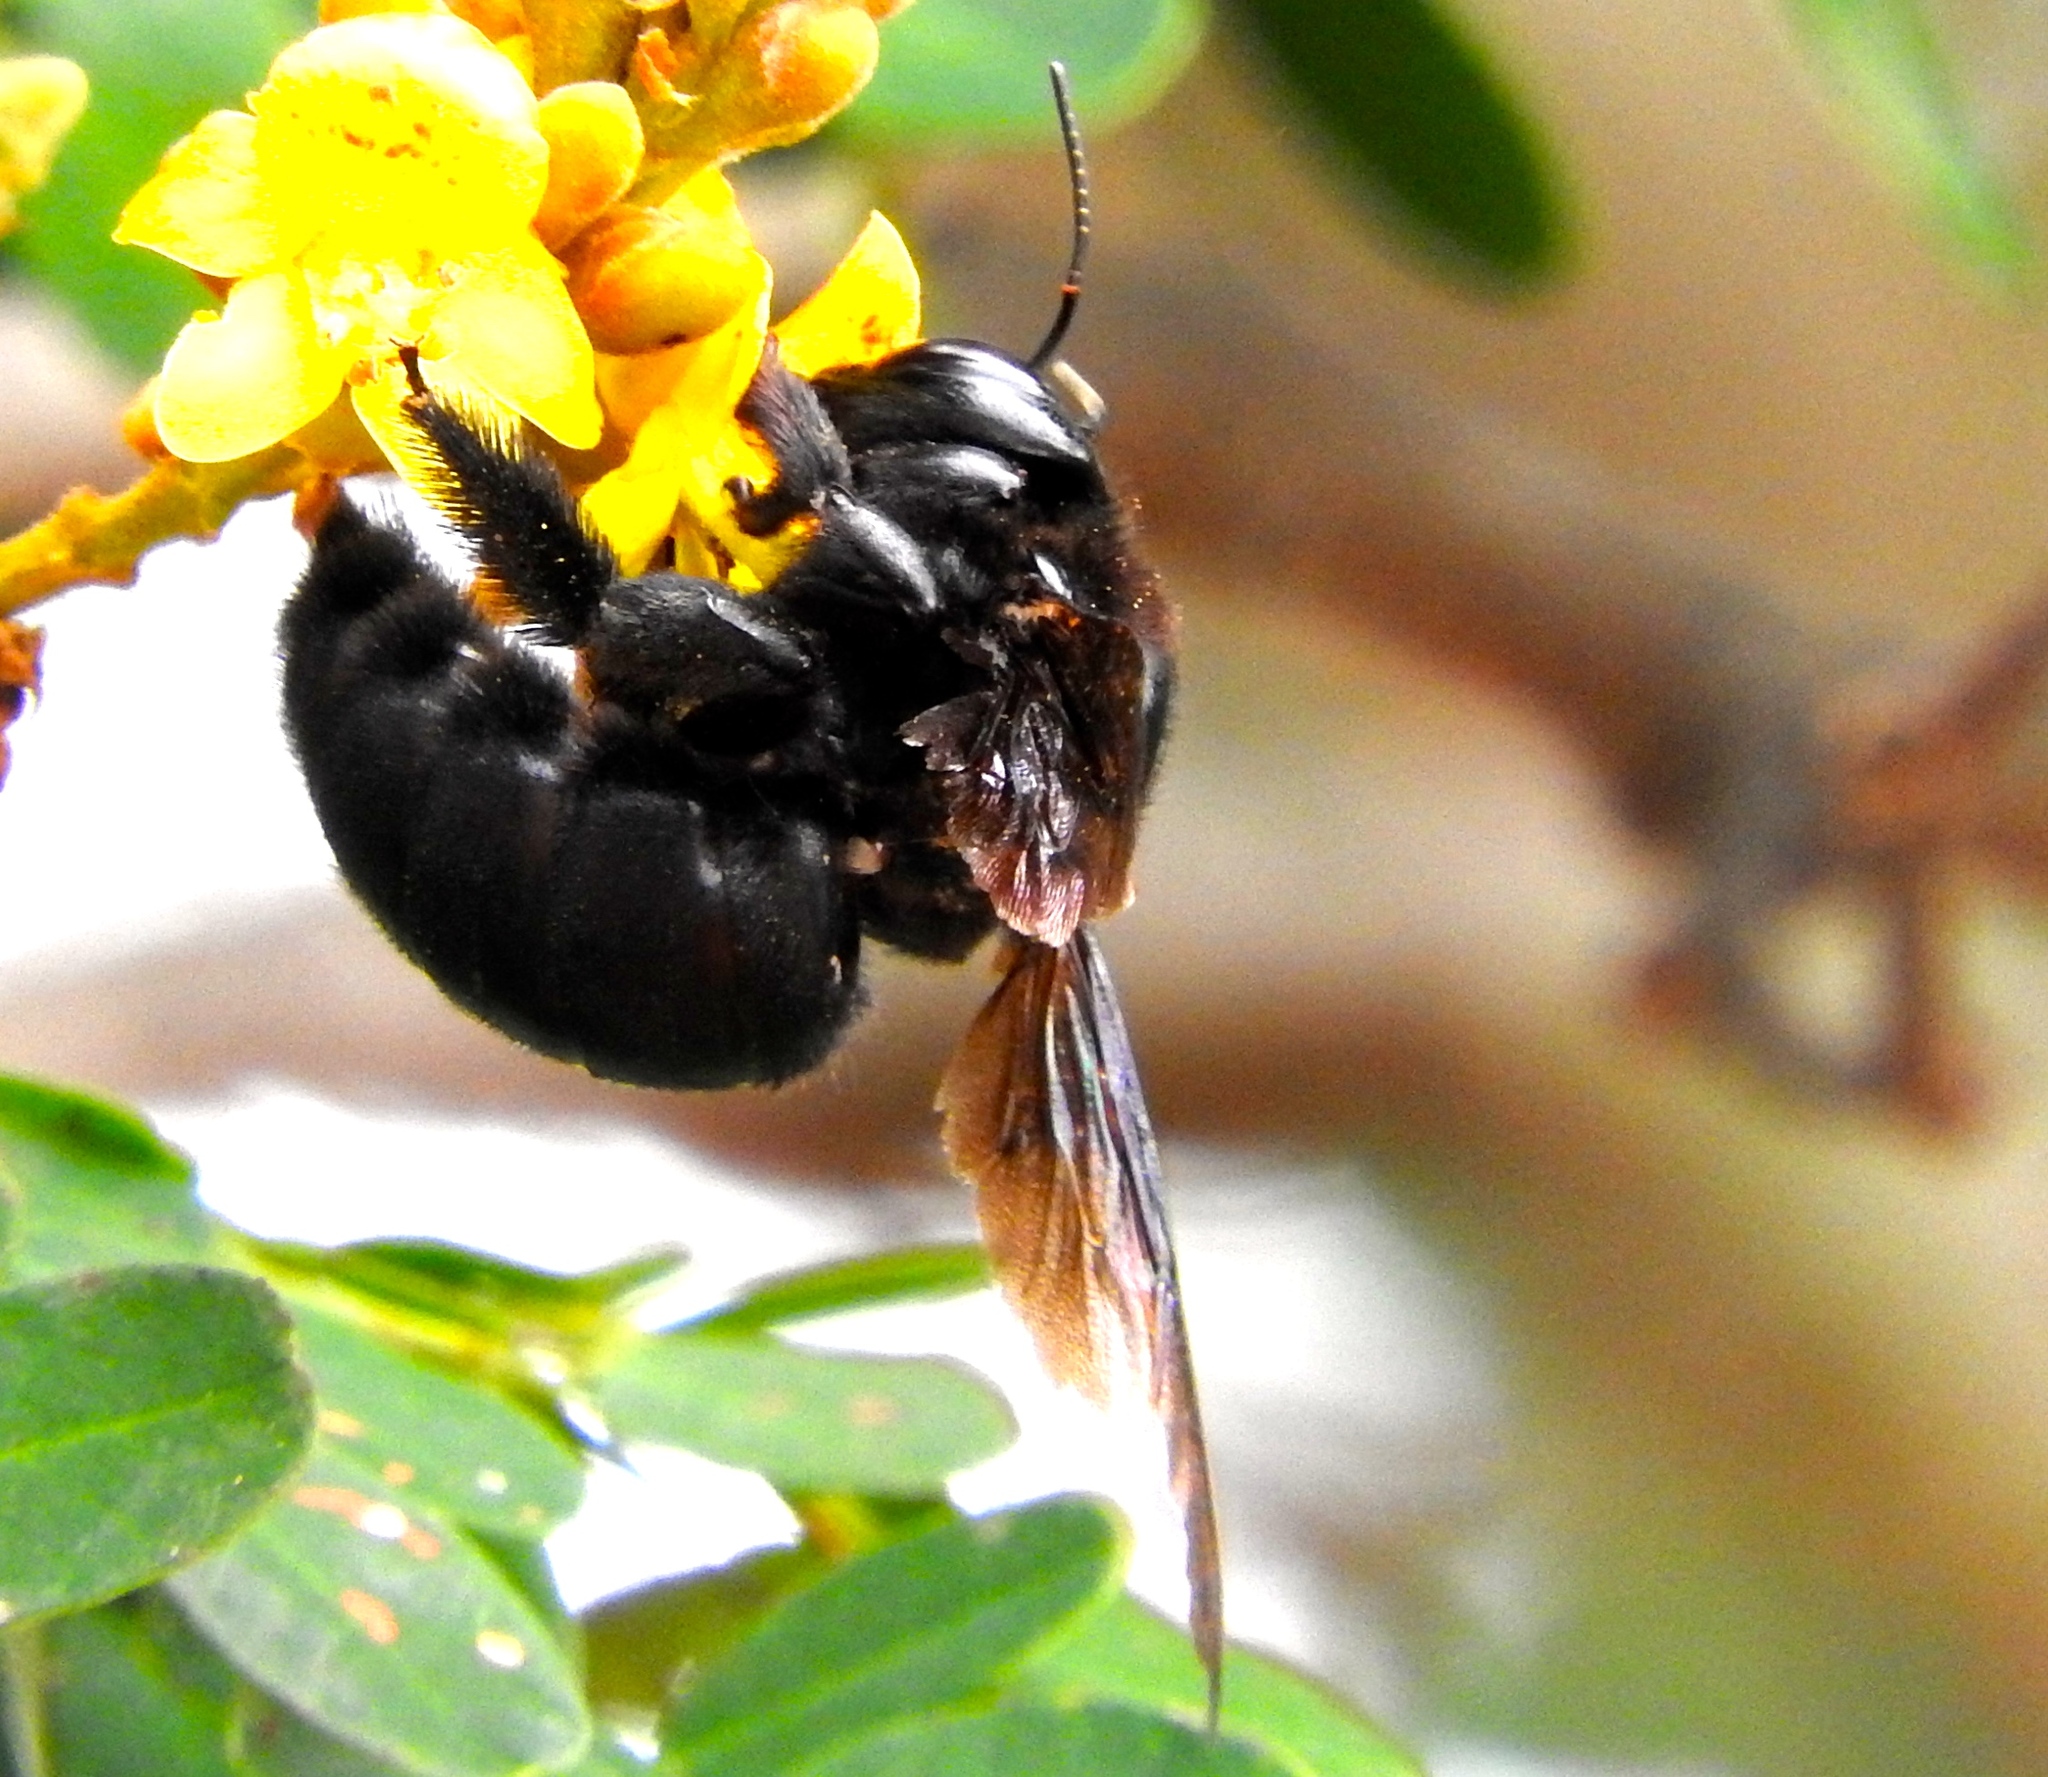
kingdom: Animalia
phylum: Arthropoda
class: Insecta
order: Hymenoptera
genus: Neoxylocopa
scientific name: Neoxylocopa
